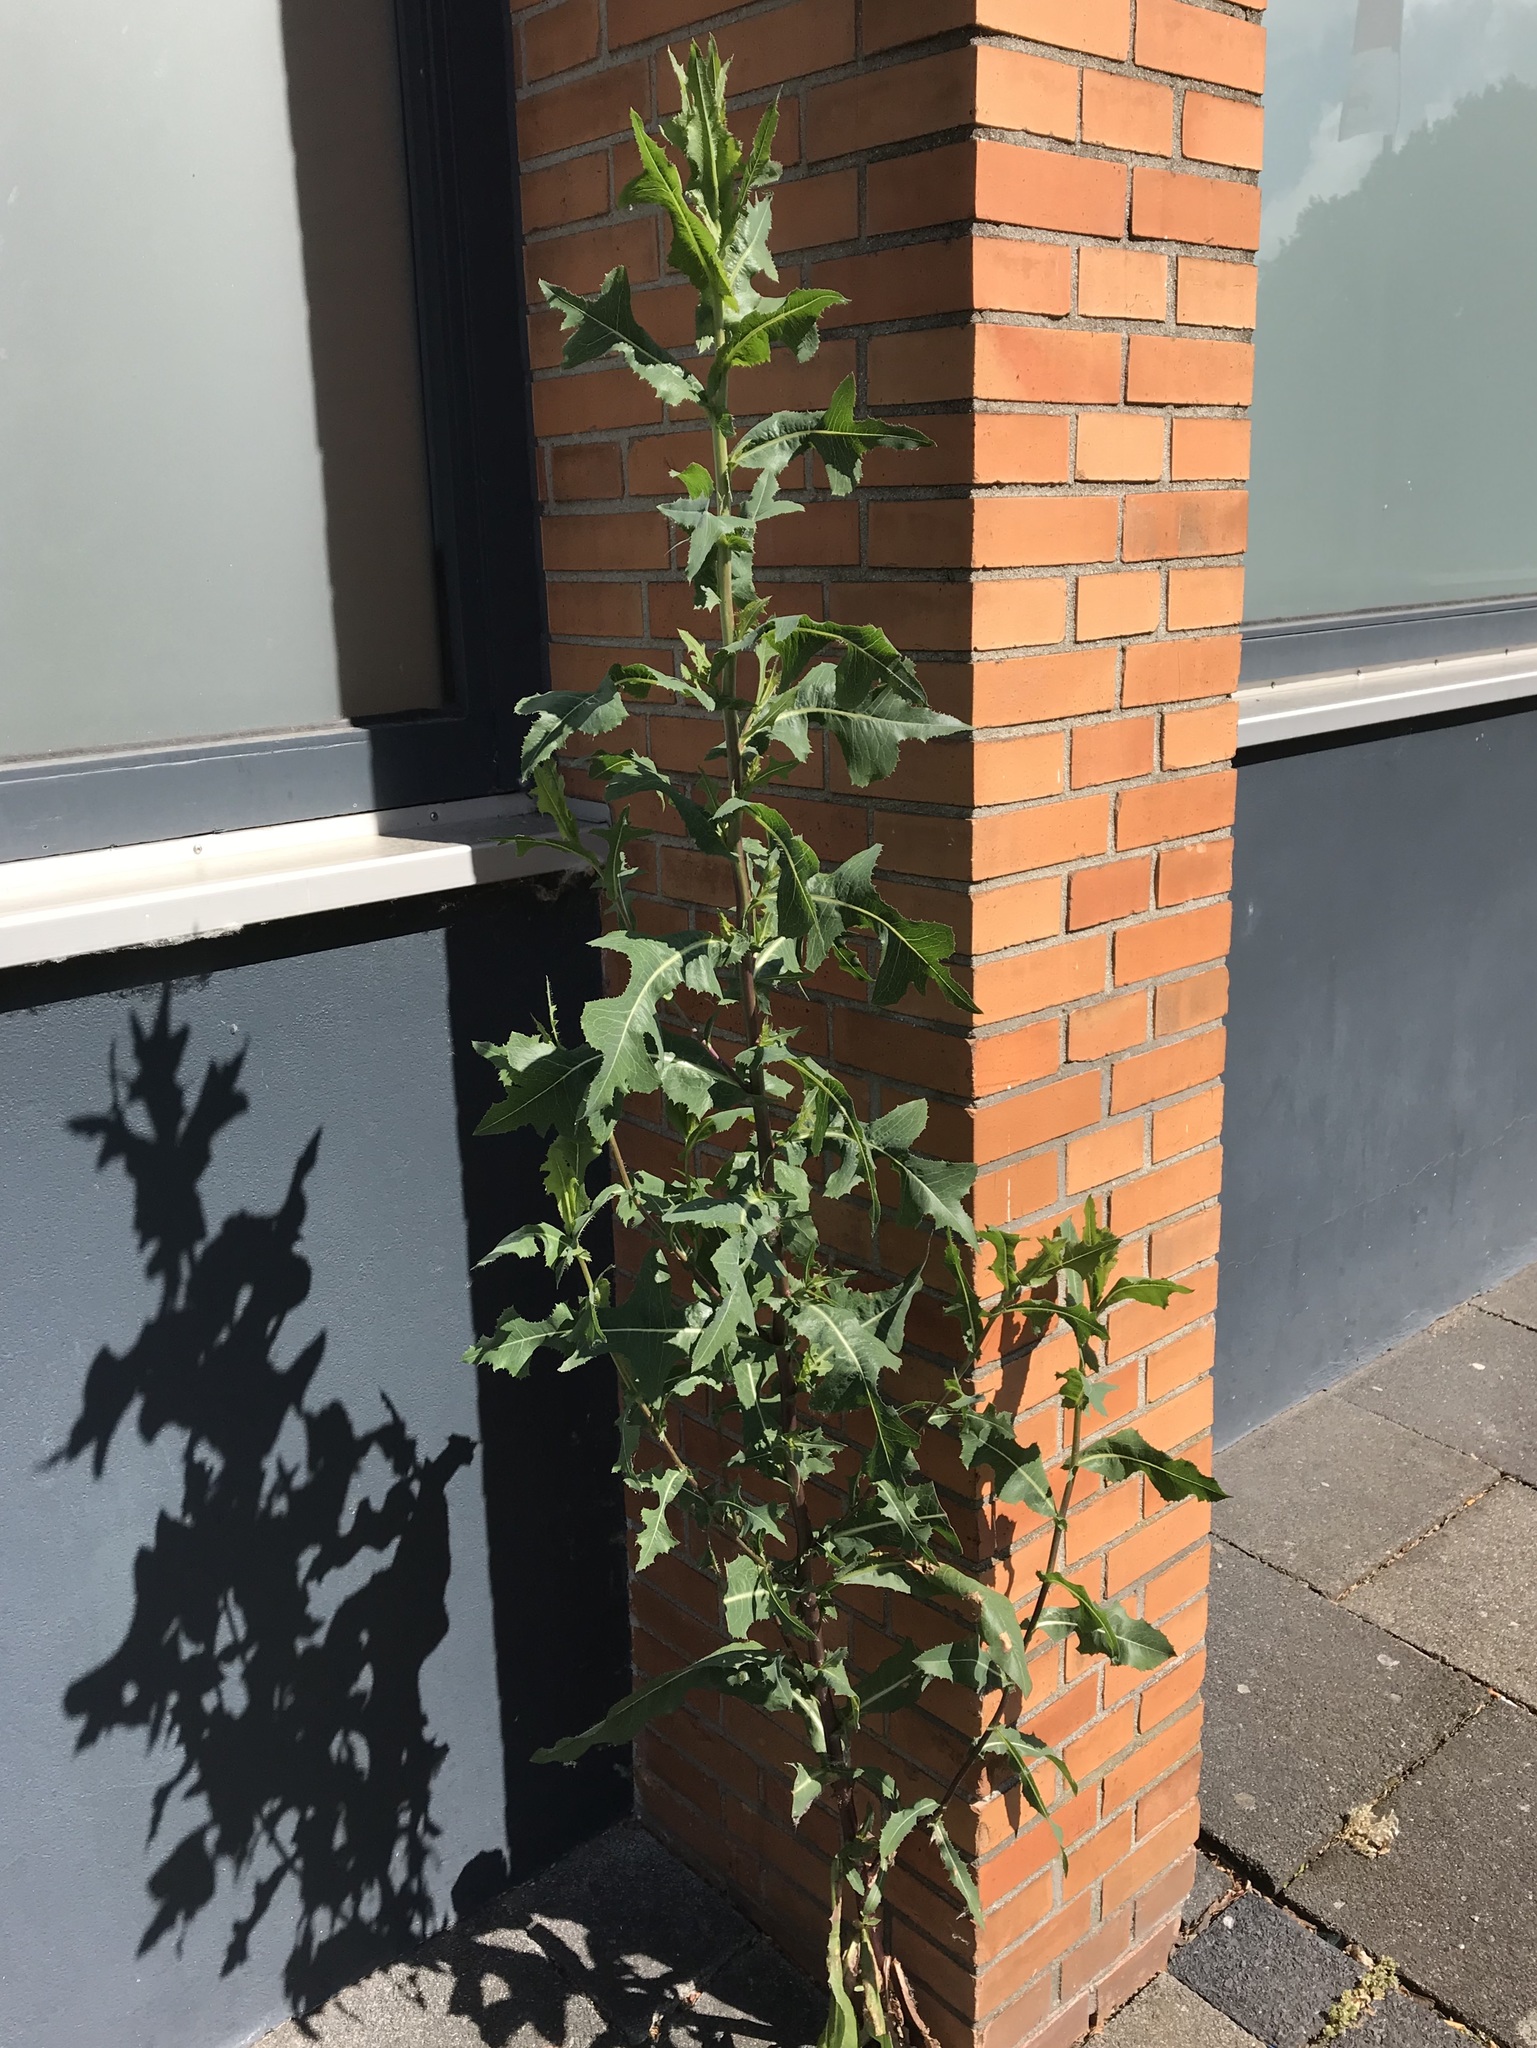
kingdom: Plantae
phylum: Tracheophyta
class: Magnoliopsida
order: Asterales
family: Asteraceae
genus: Lactuca
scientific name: Lactuca serriola
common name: Prickly lettuce
